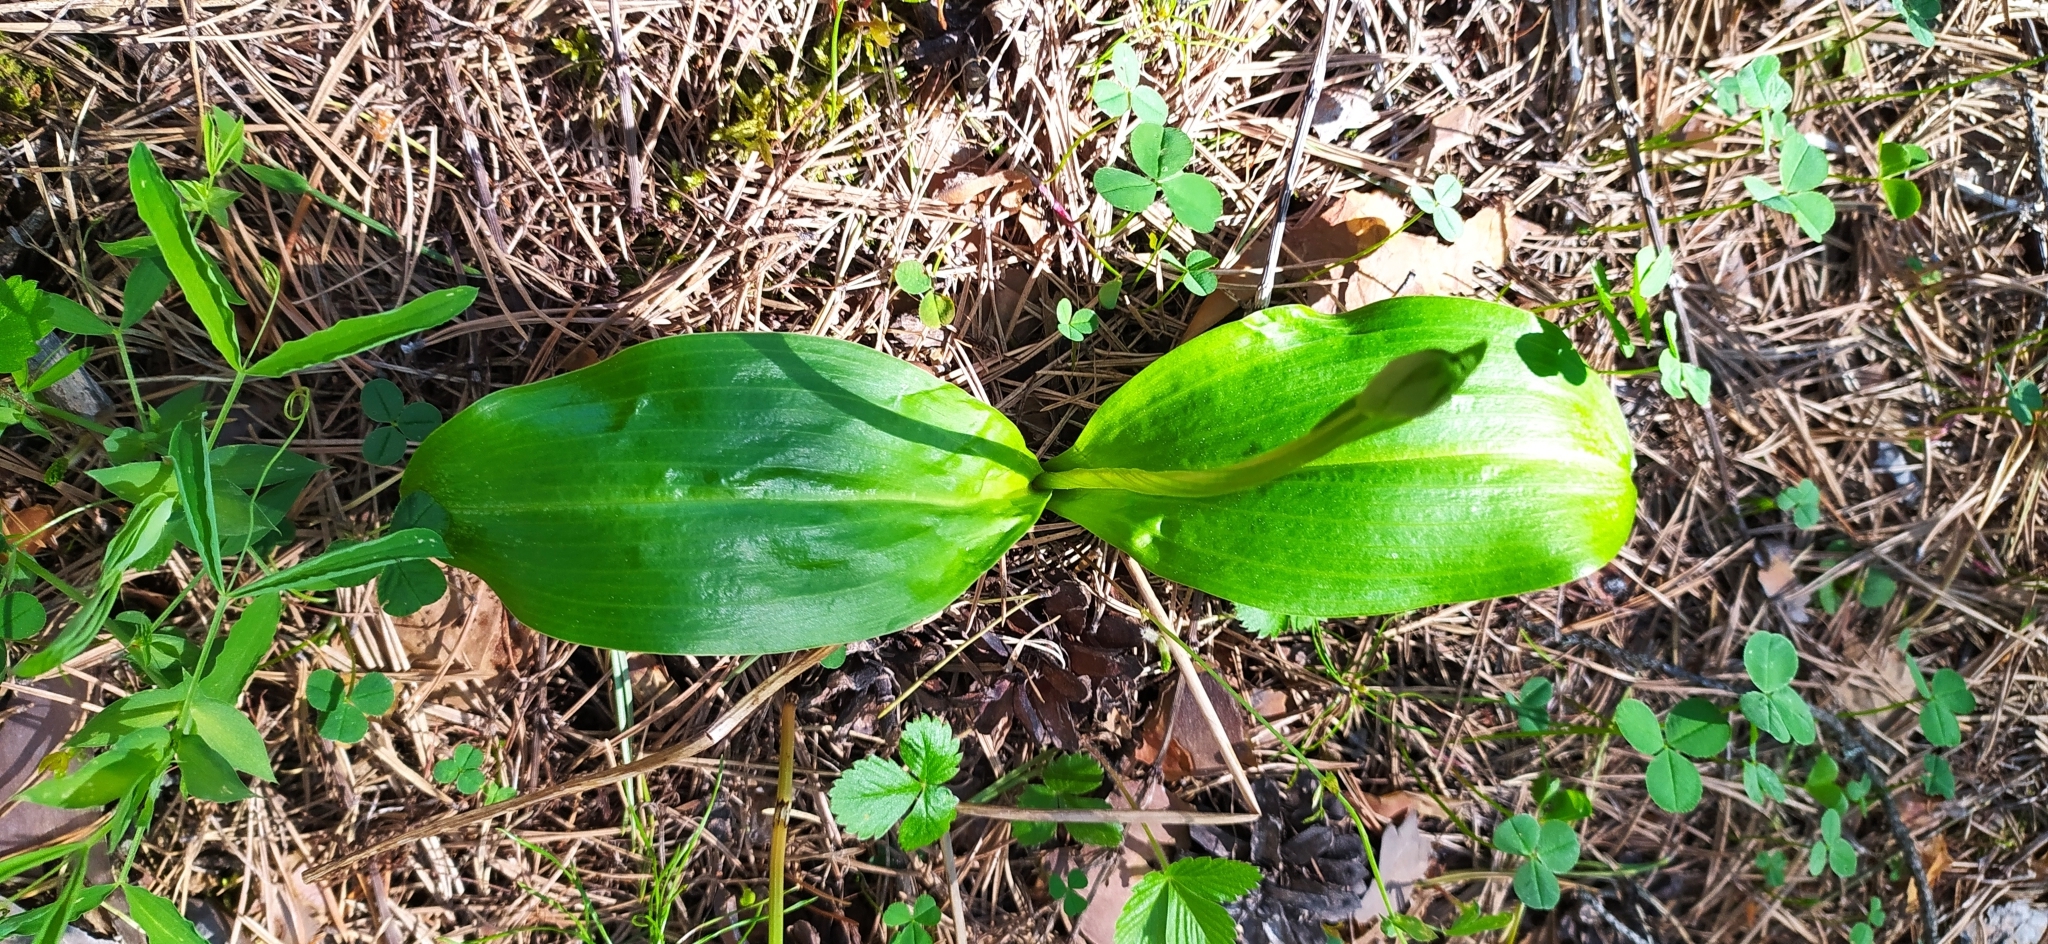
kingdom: Plantae
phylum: Tracheophyta
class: Liliopsida
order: Asparagales
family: Orchidaceae
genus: Platanthera
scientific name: Platanthera bifolia
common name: Lesser butterfly-orchid
